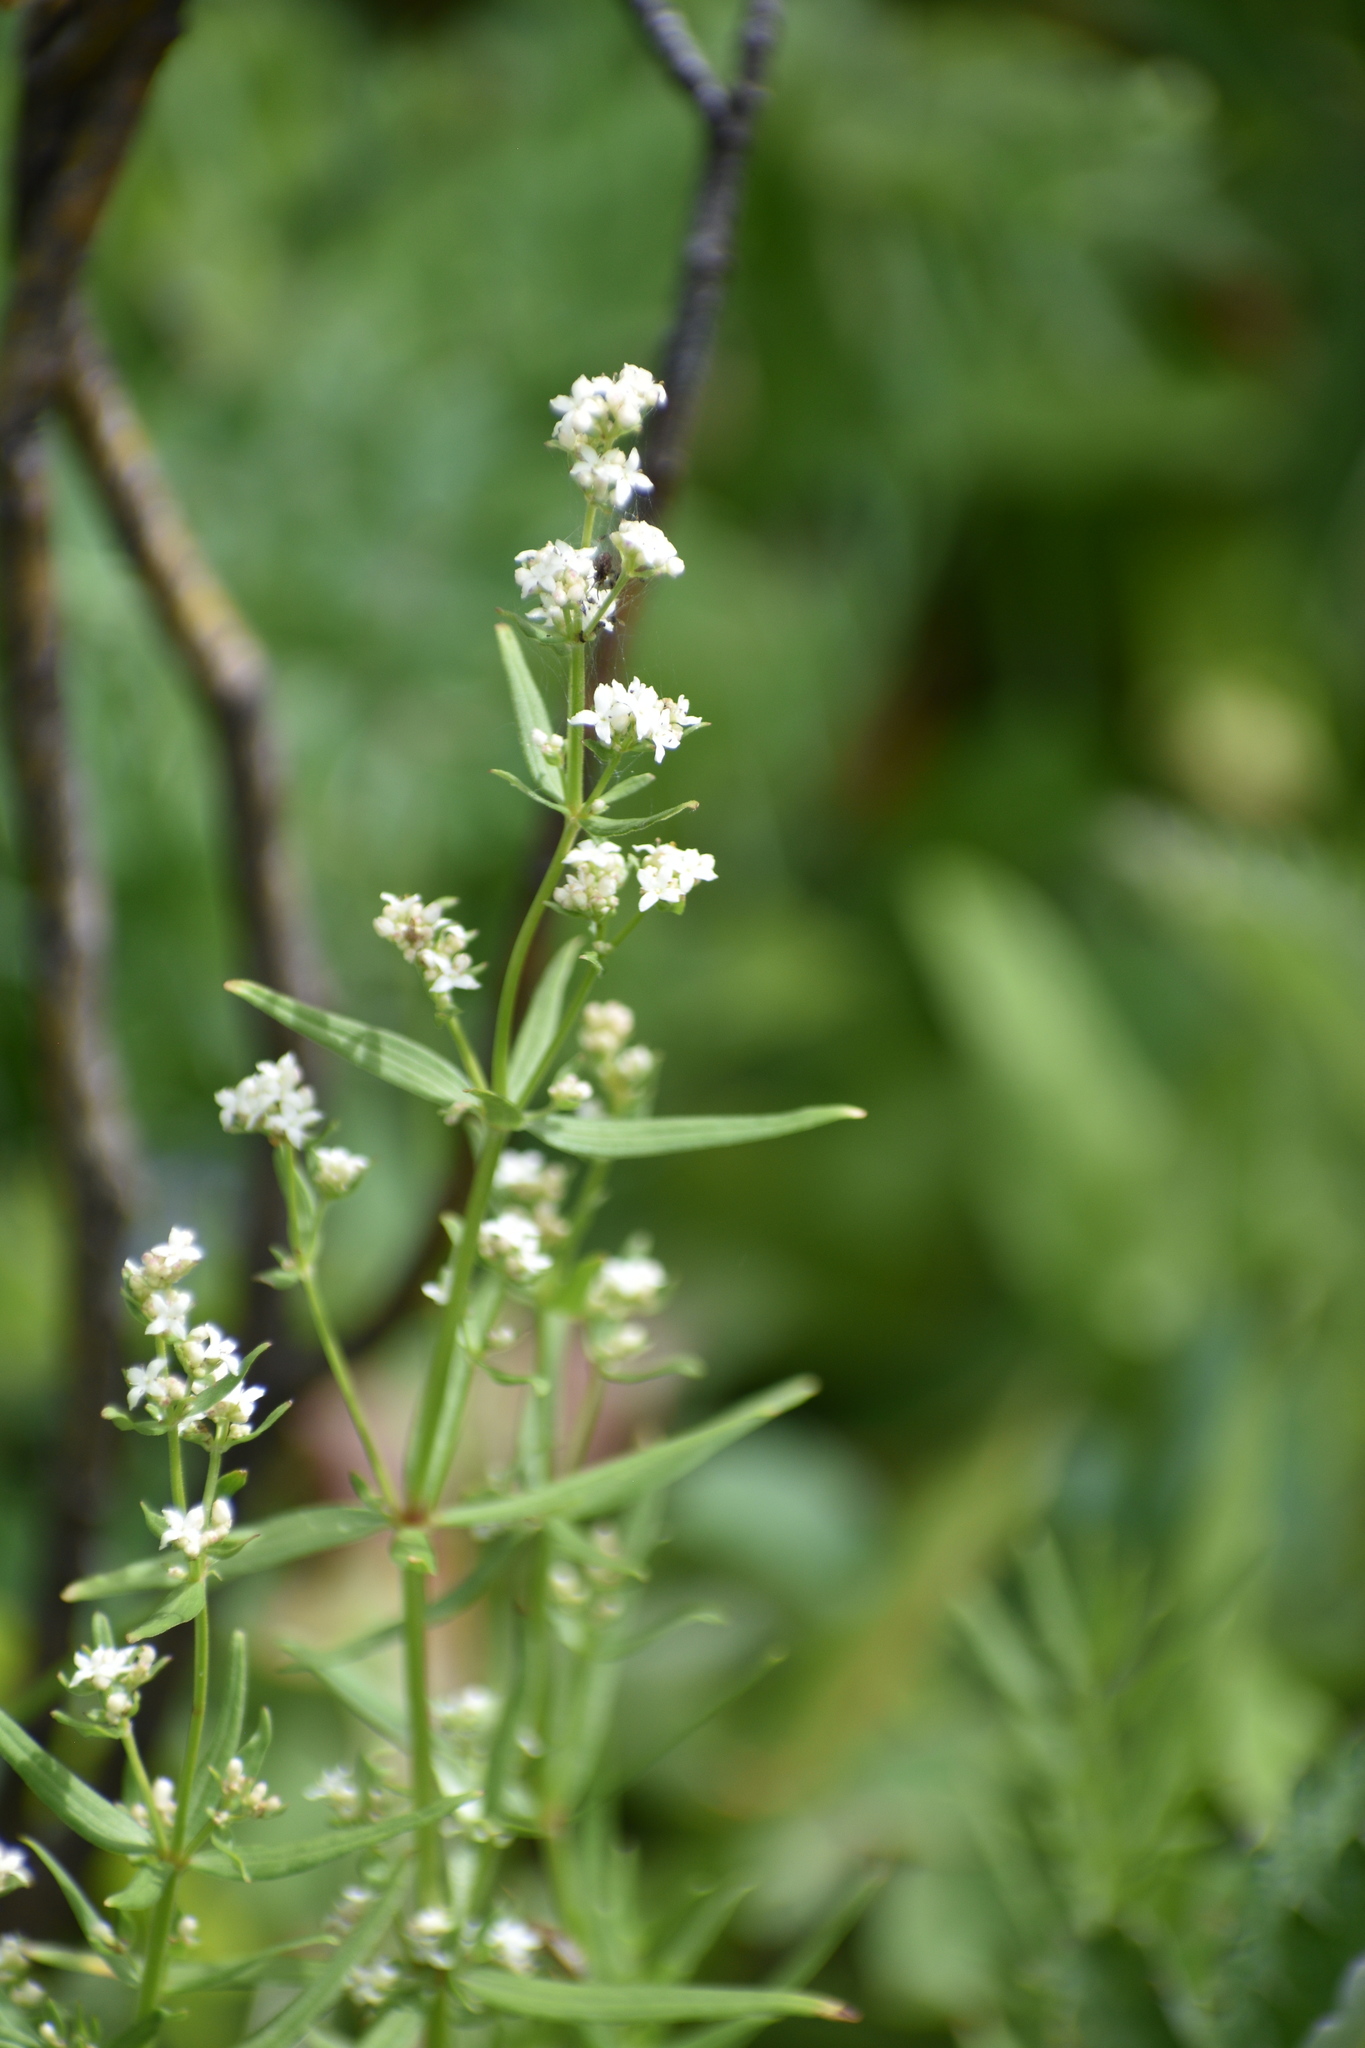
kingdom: Plantae
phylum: Tracheophyta
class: Magnoliopsida
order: Gentianales
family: Rubiaceae
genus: Galium
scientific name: Galium boreale
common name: Northern bedstraw
